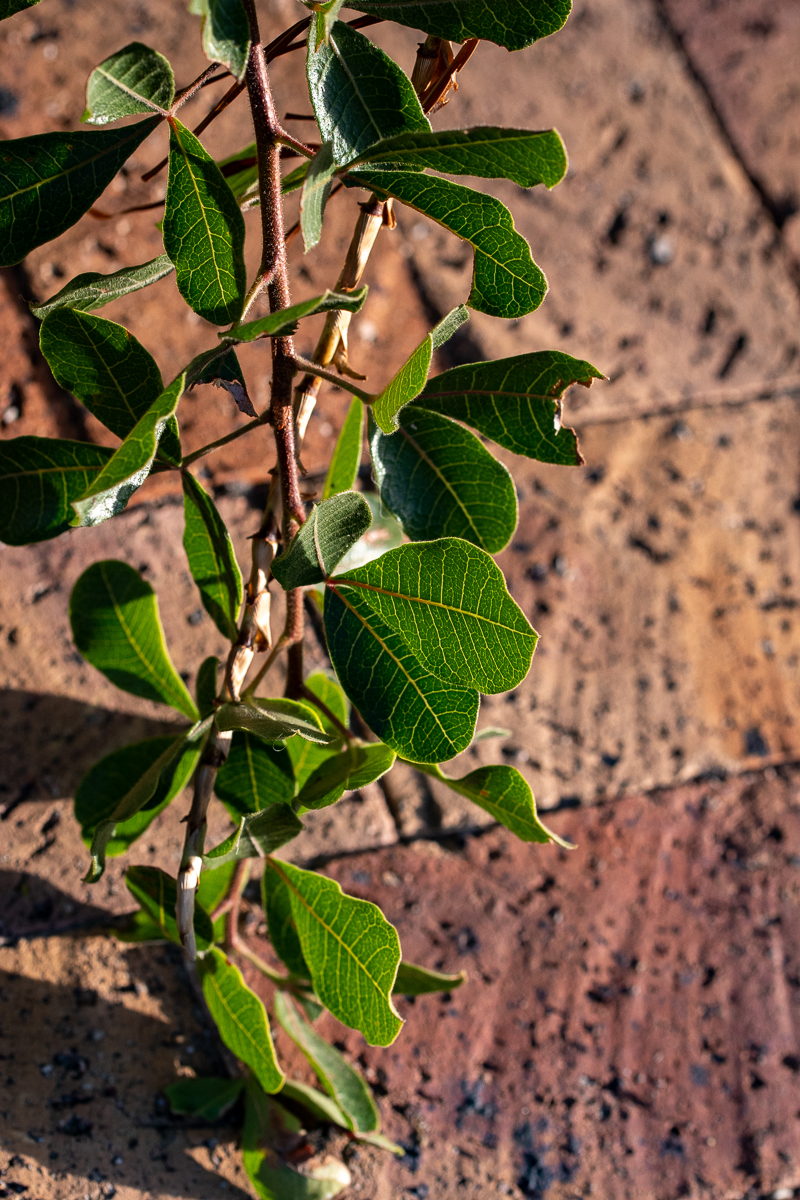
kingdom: Plantae
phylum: Tracheophyta
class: Magnoliopsida
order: Sapindales
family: Anacardiaceae
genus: Searsia
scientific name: Searsia laevigata
